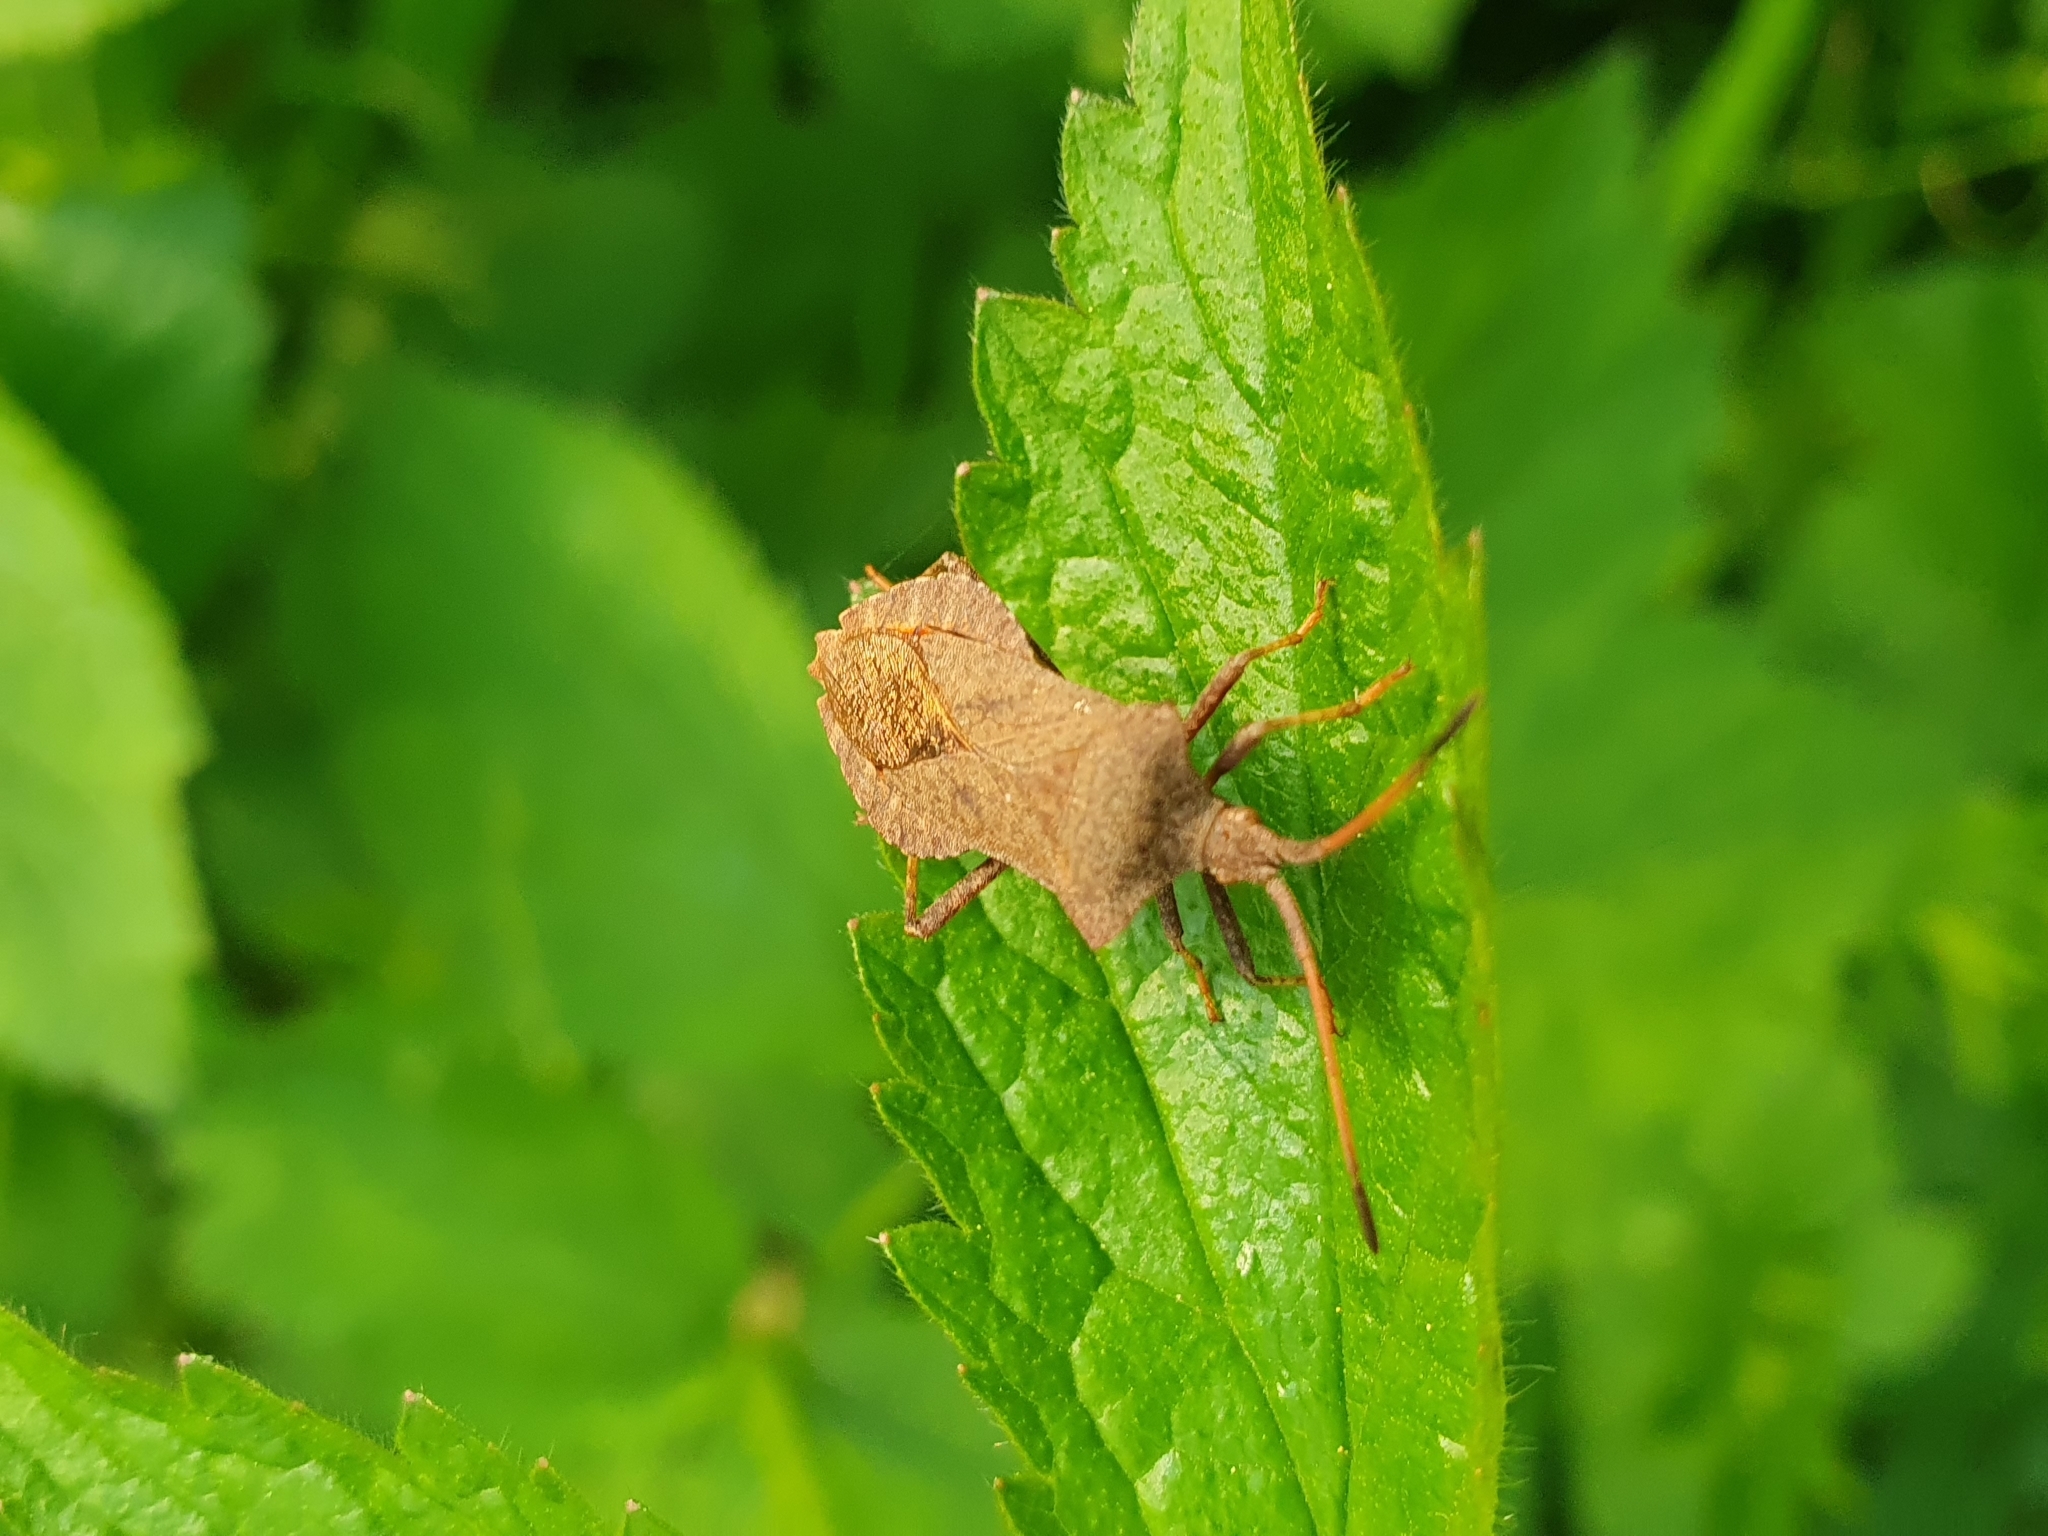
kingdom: Animalia
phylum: Arthropoda
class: Insecta
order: Hemiptera
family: Coreidae
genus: Coreus
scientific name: Coreus marginatus
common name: Dock bug
